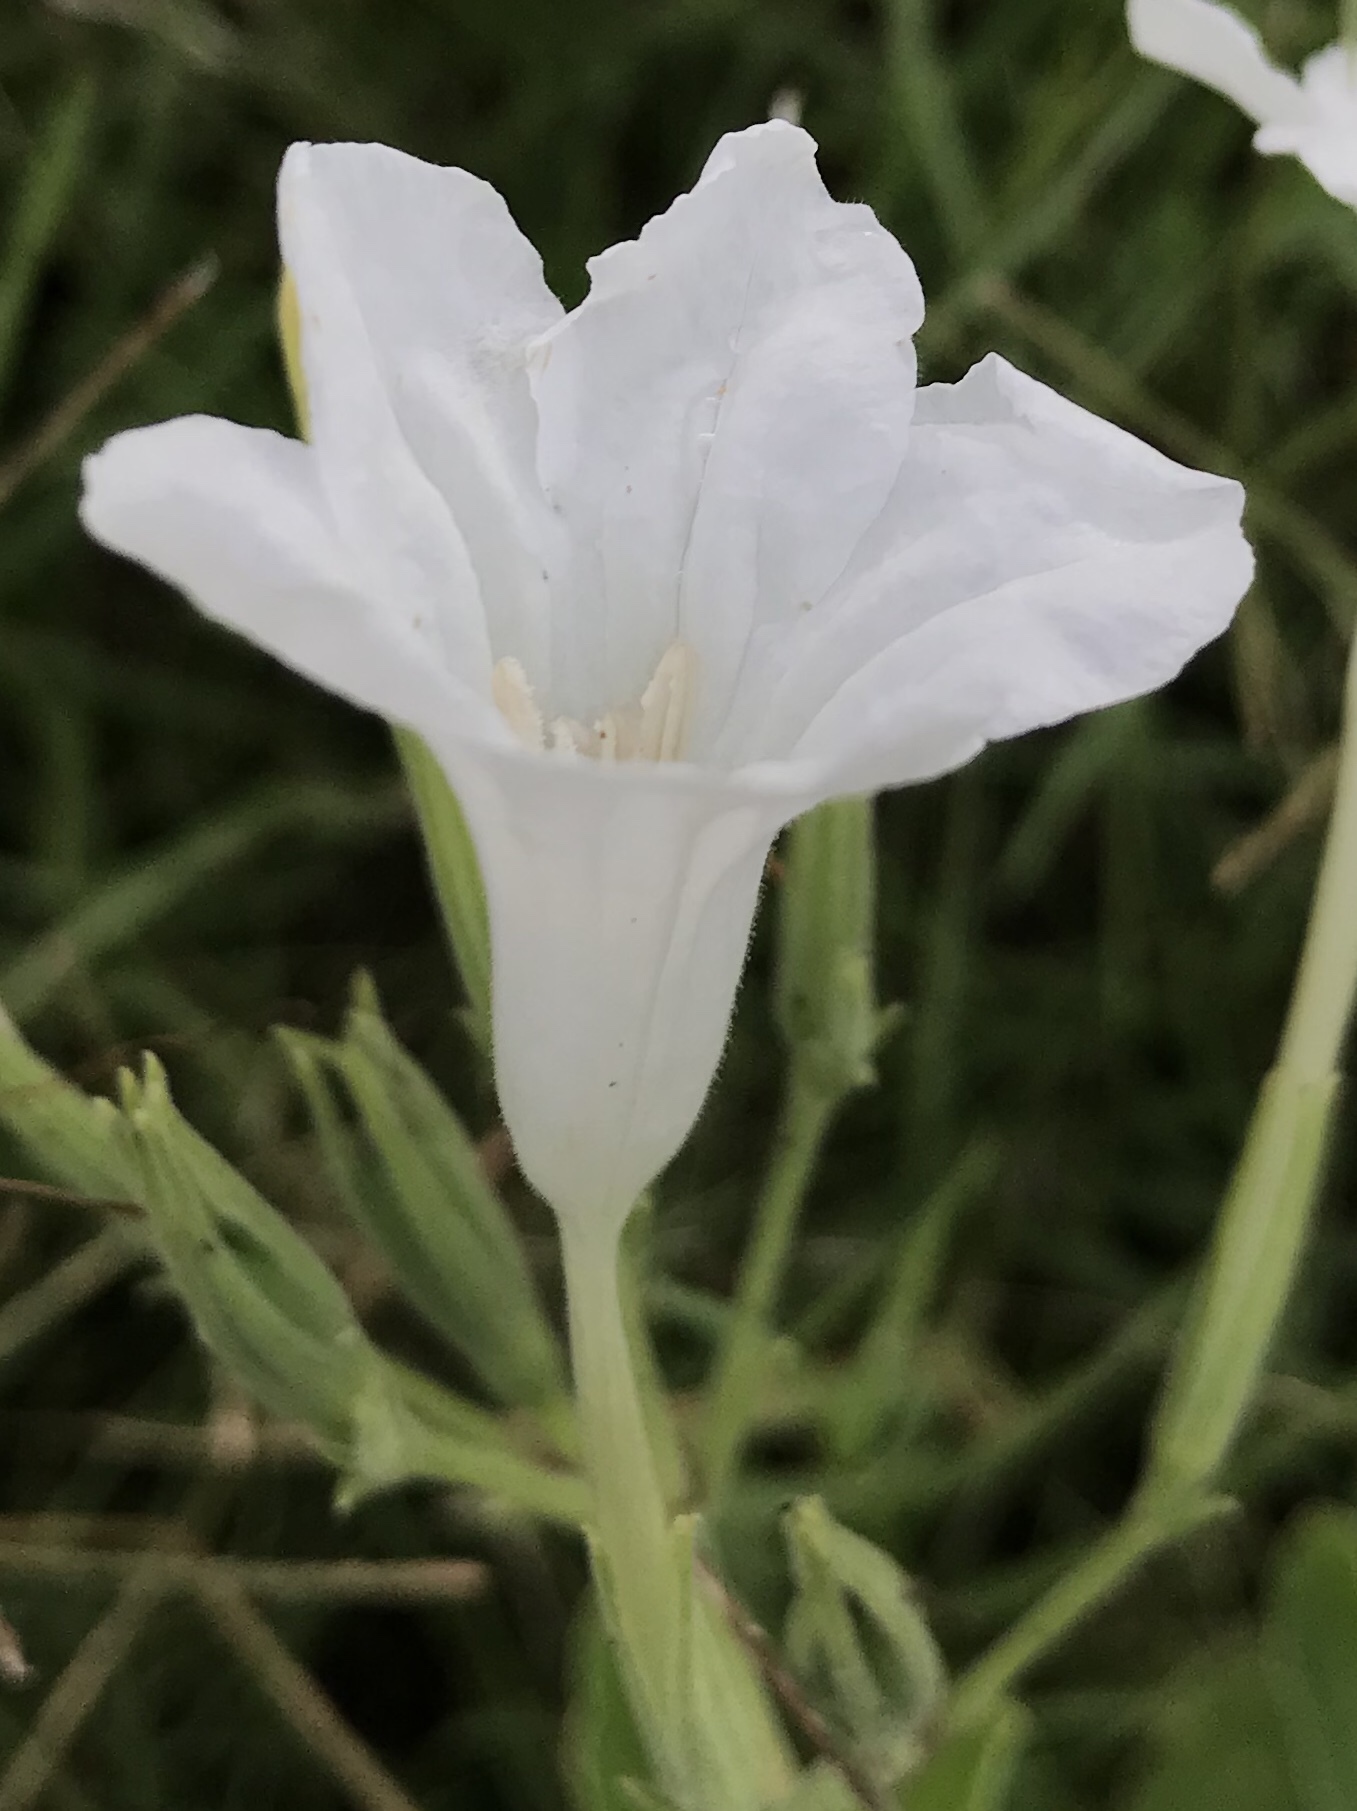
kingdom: Plantae
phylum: Tracheophyta
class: Magnoliopsida
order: Lamiales
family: Acanthaceae
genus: Ruellia
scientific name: Ruellia metziae
